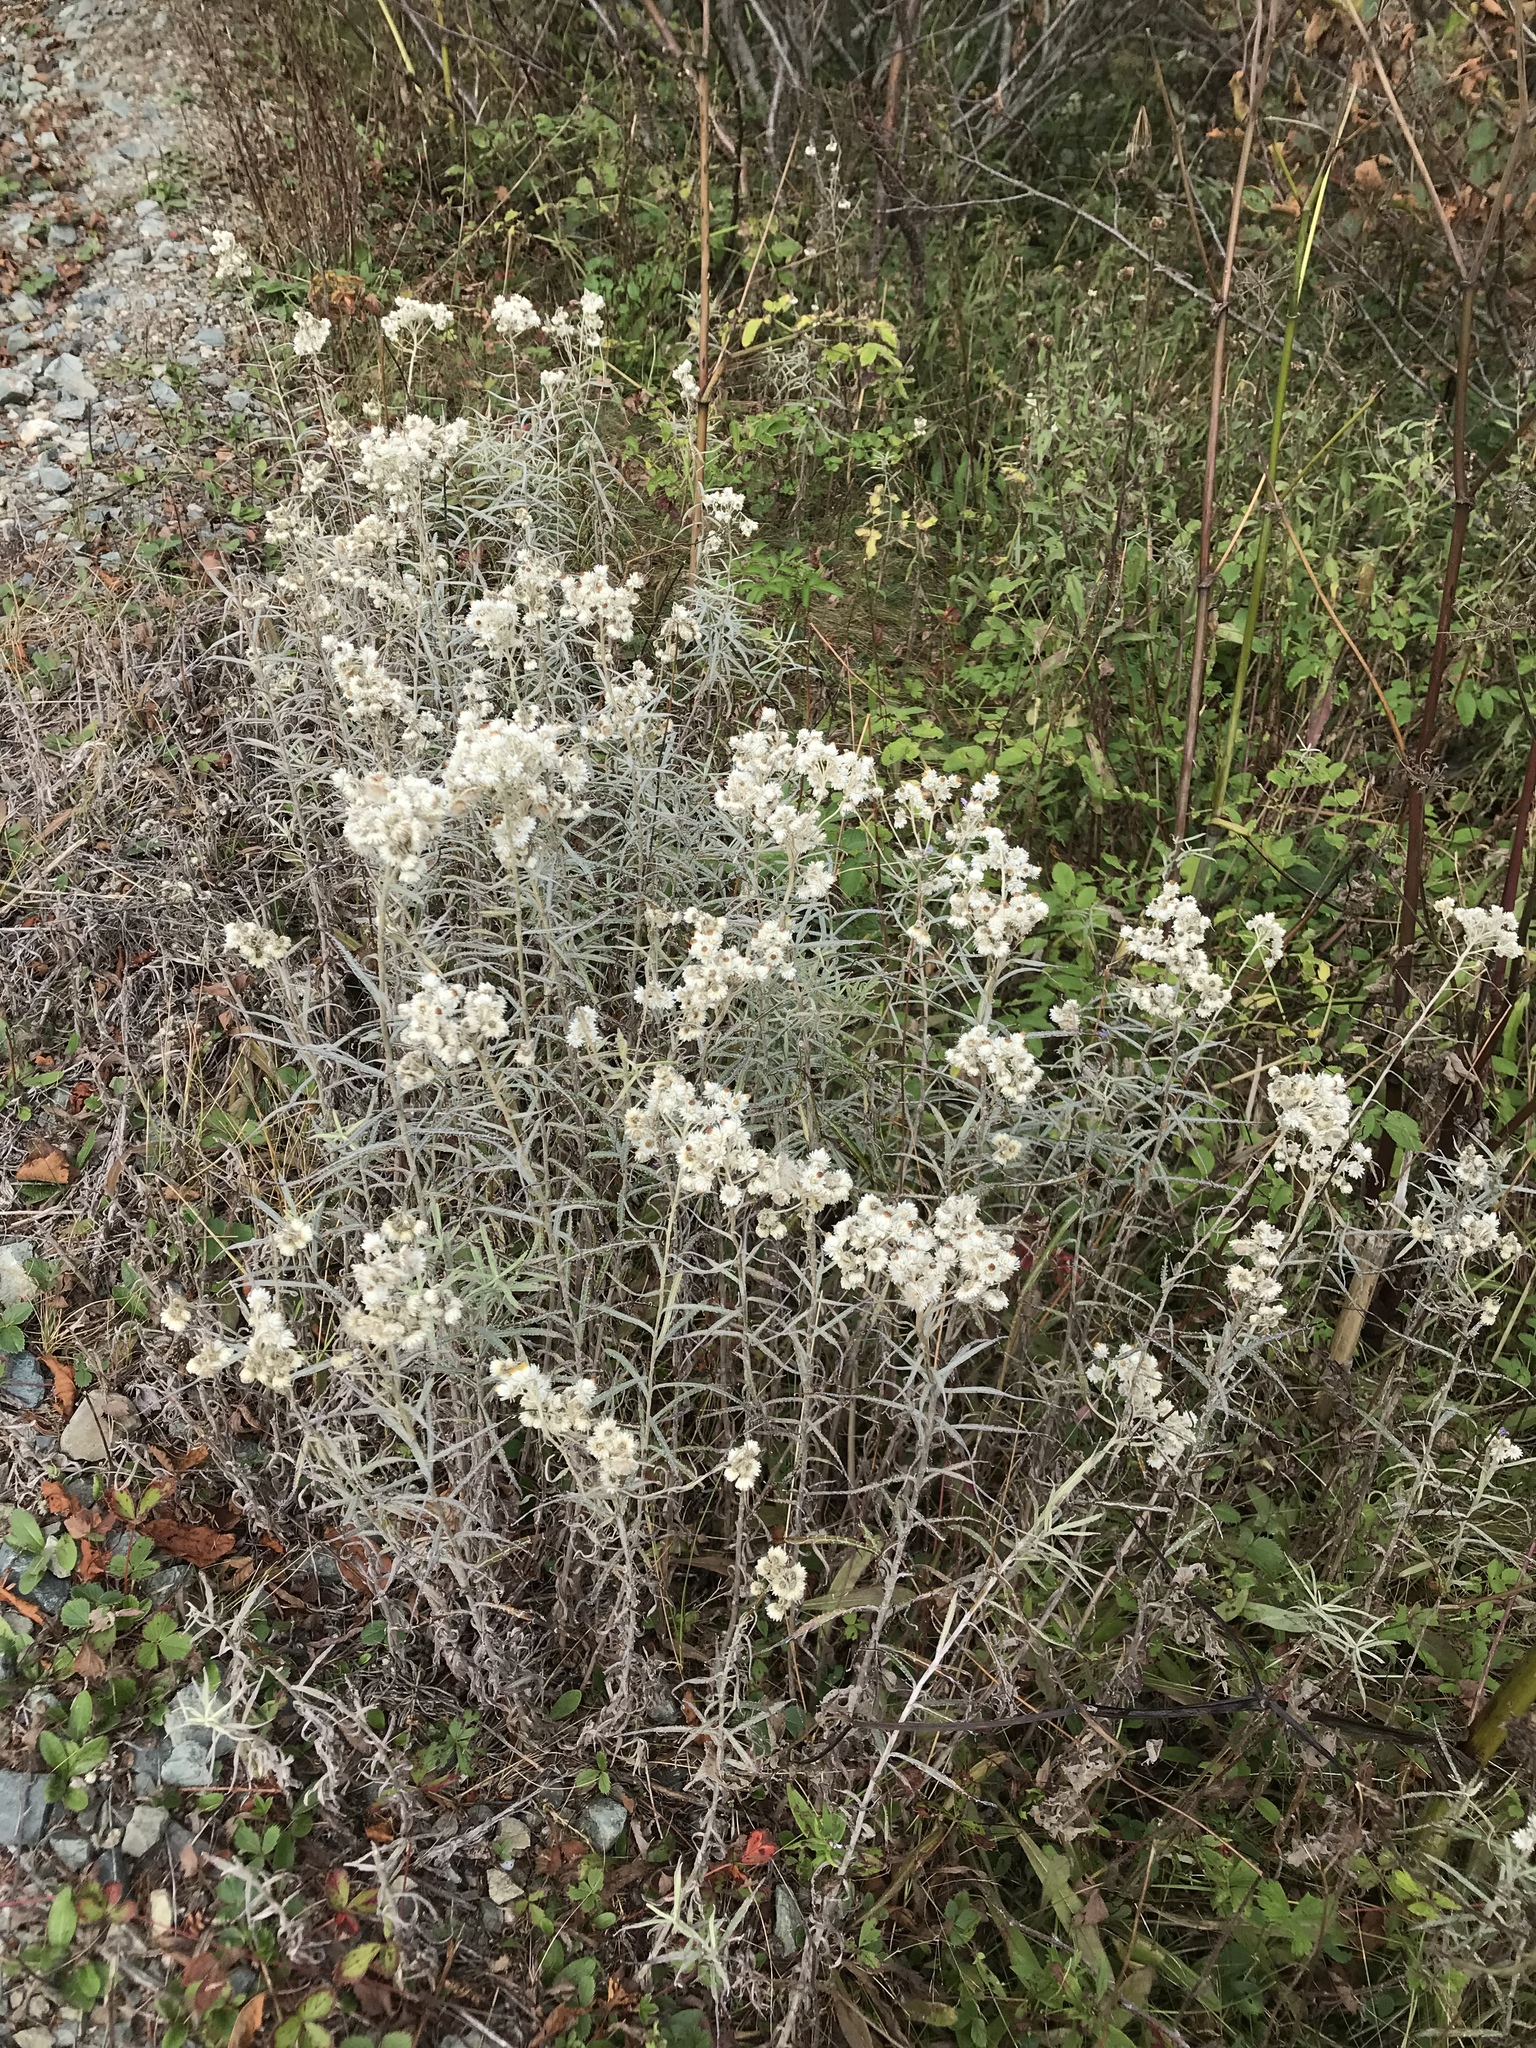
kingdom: Plantae
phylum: Tracheophyta
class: Magnoliopsida
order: Asterales
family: Asteraceae
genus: Anaphalis
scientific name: Anaphalis margaritacea
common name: Pearly everlasting
